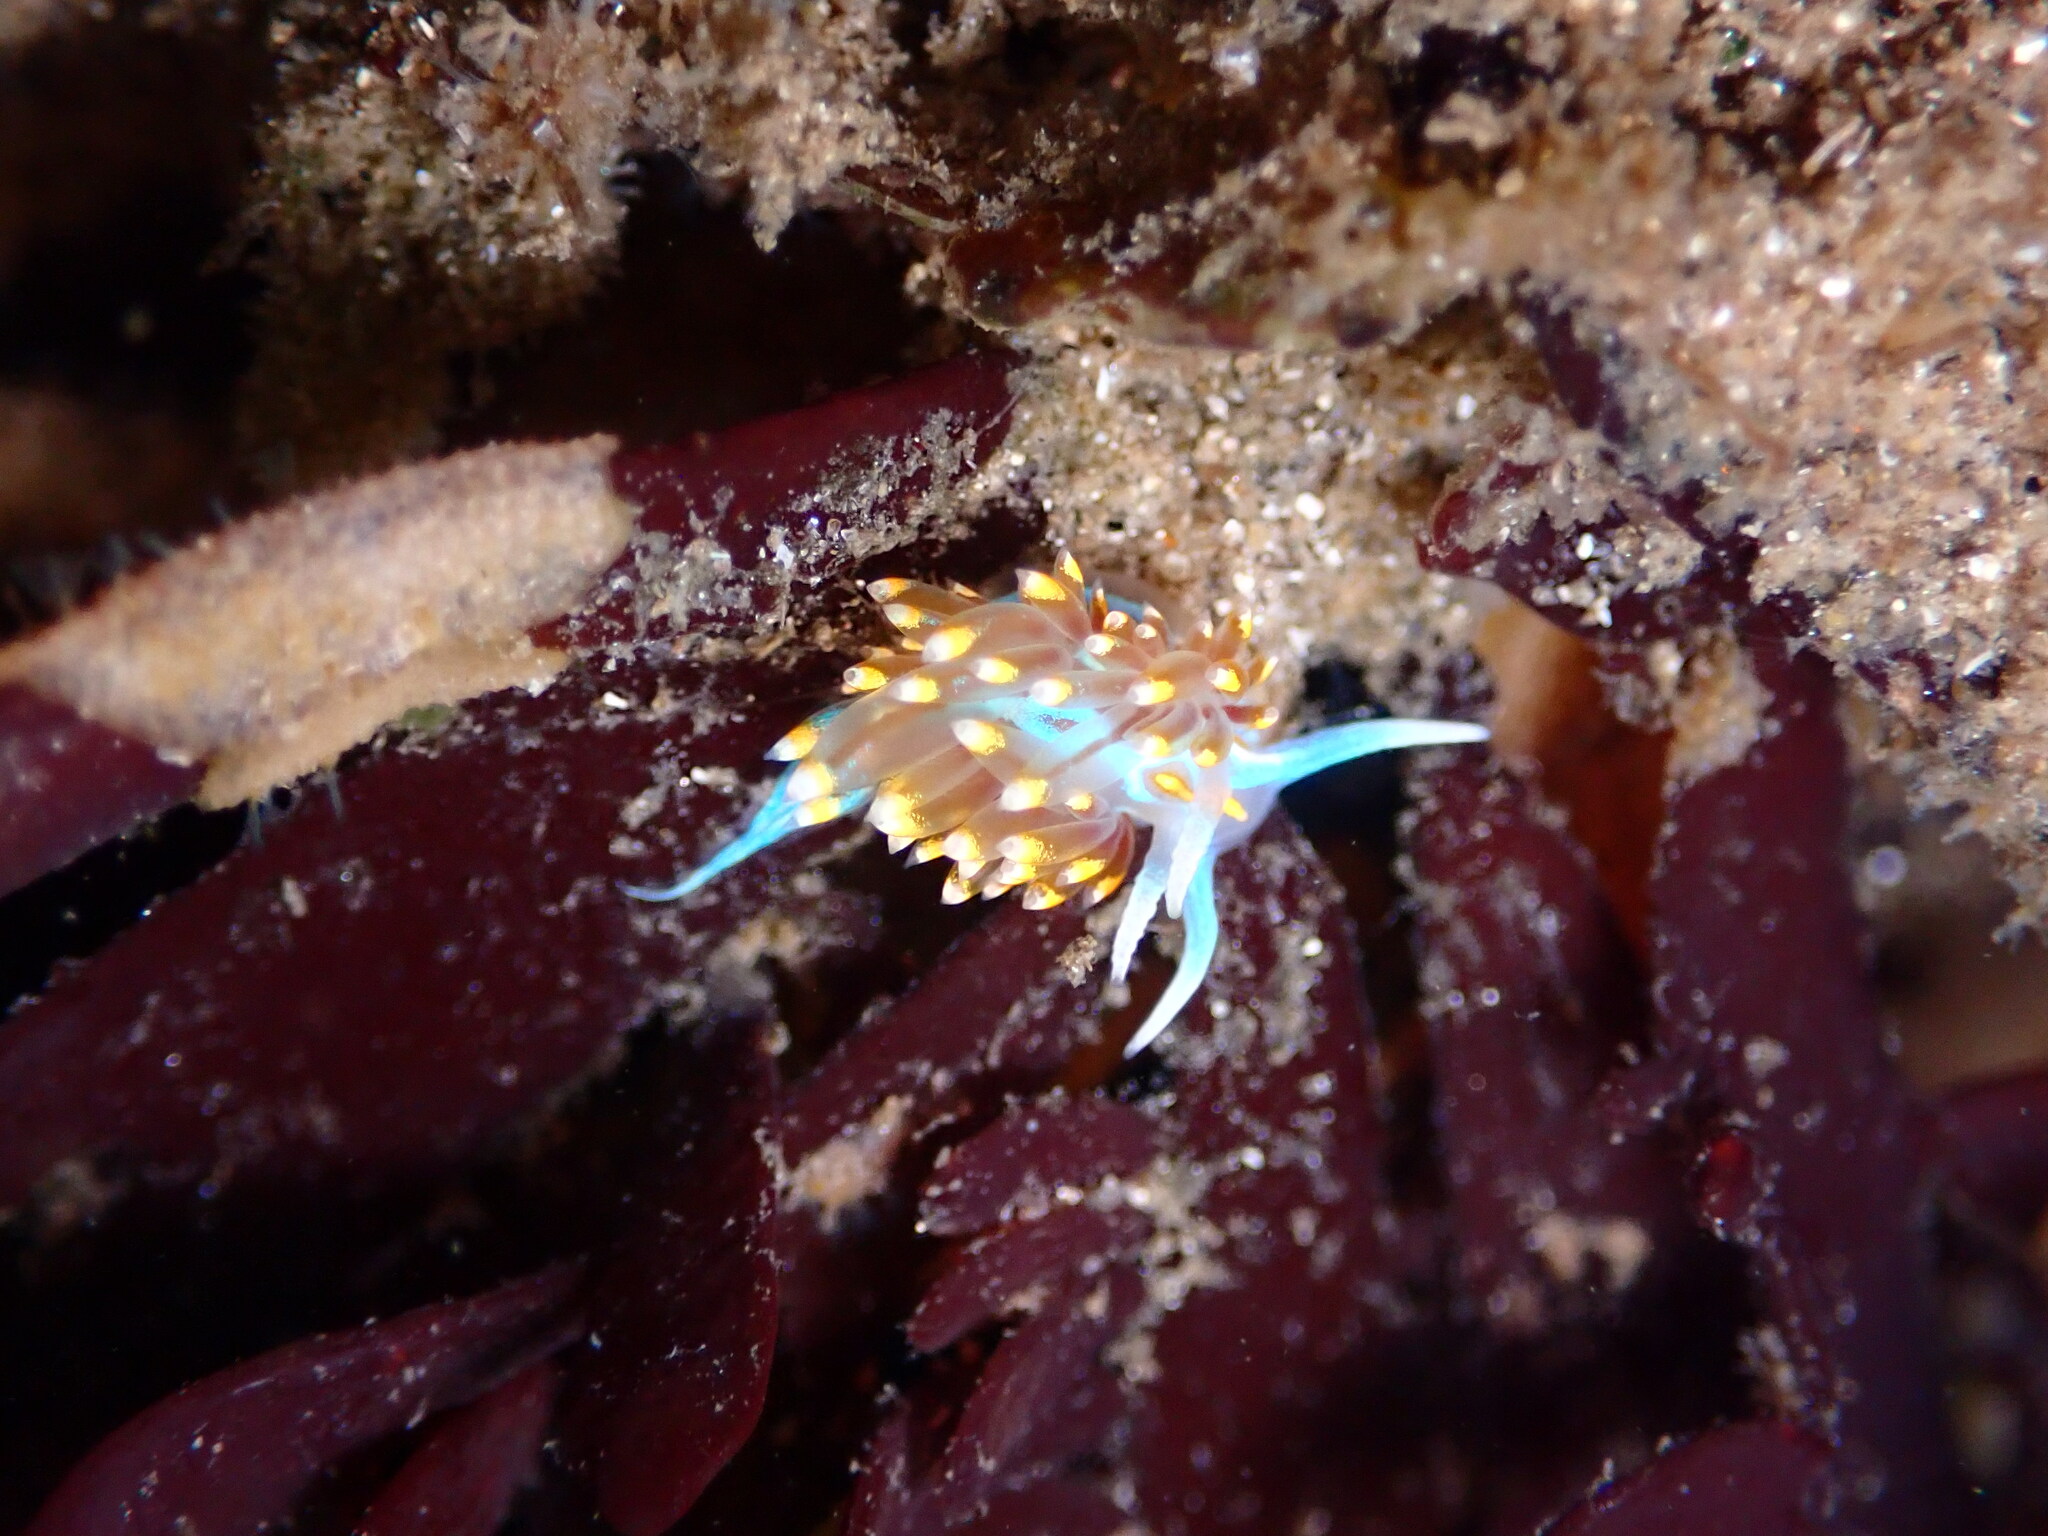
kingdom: Animalia
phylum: Mollusca
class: Gastropoda
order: Nudibranchia
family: Myrrhinidae
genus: Hermissenda
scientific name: Hermissenda opalescens
